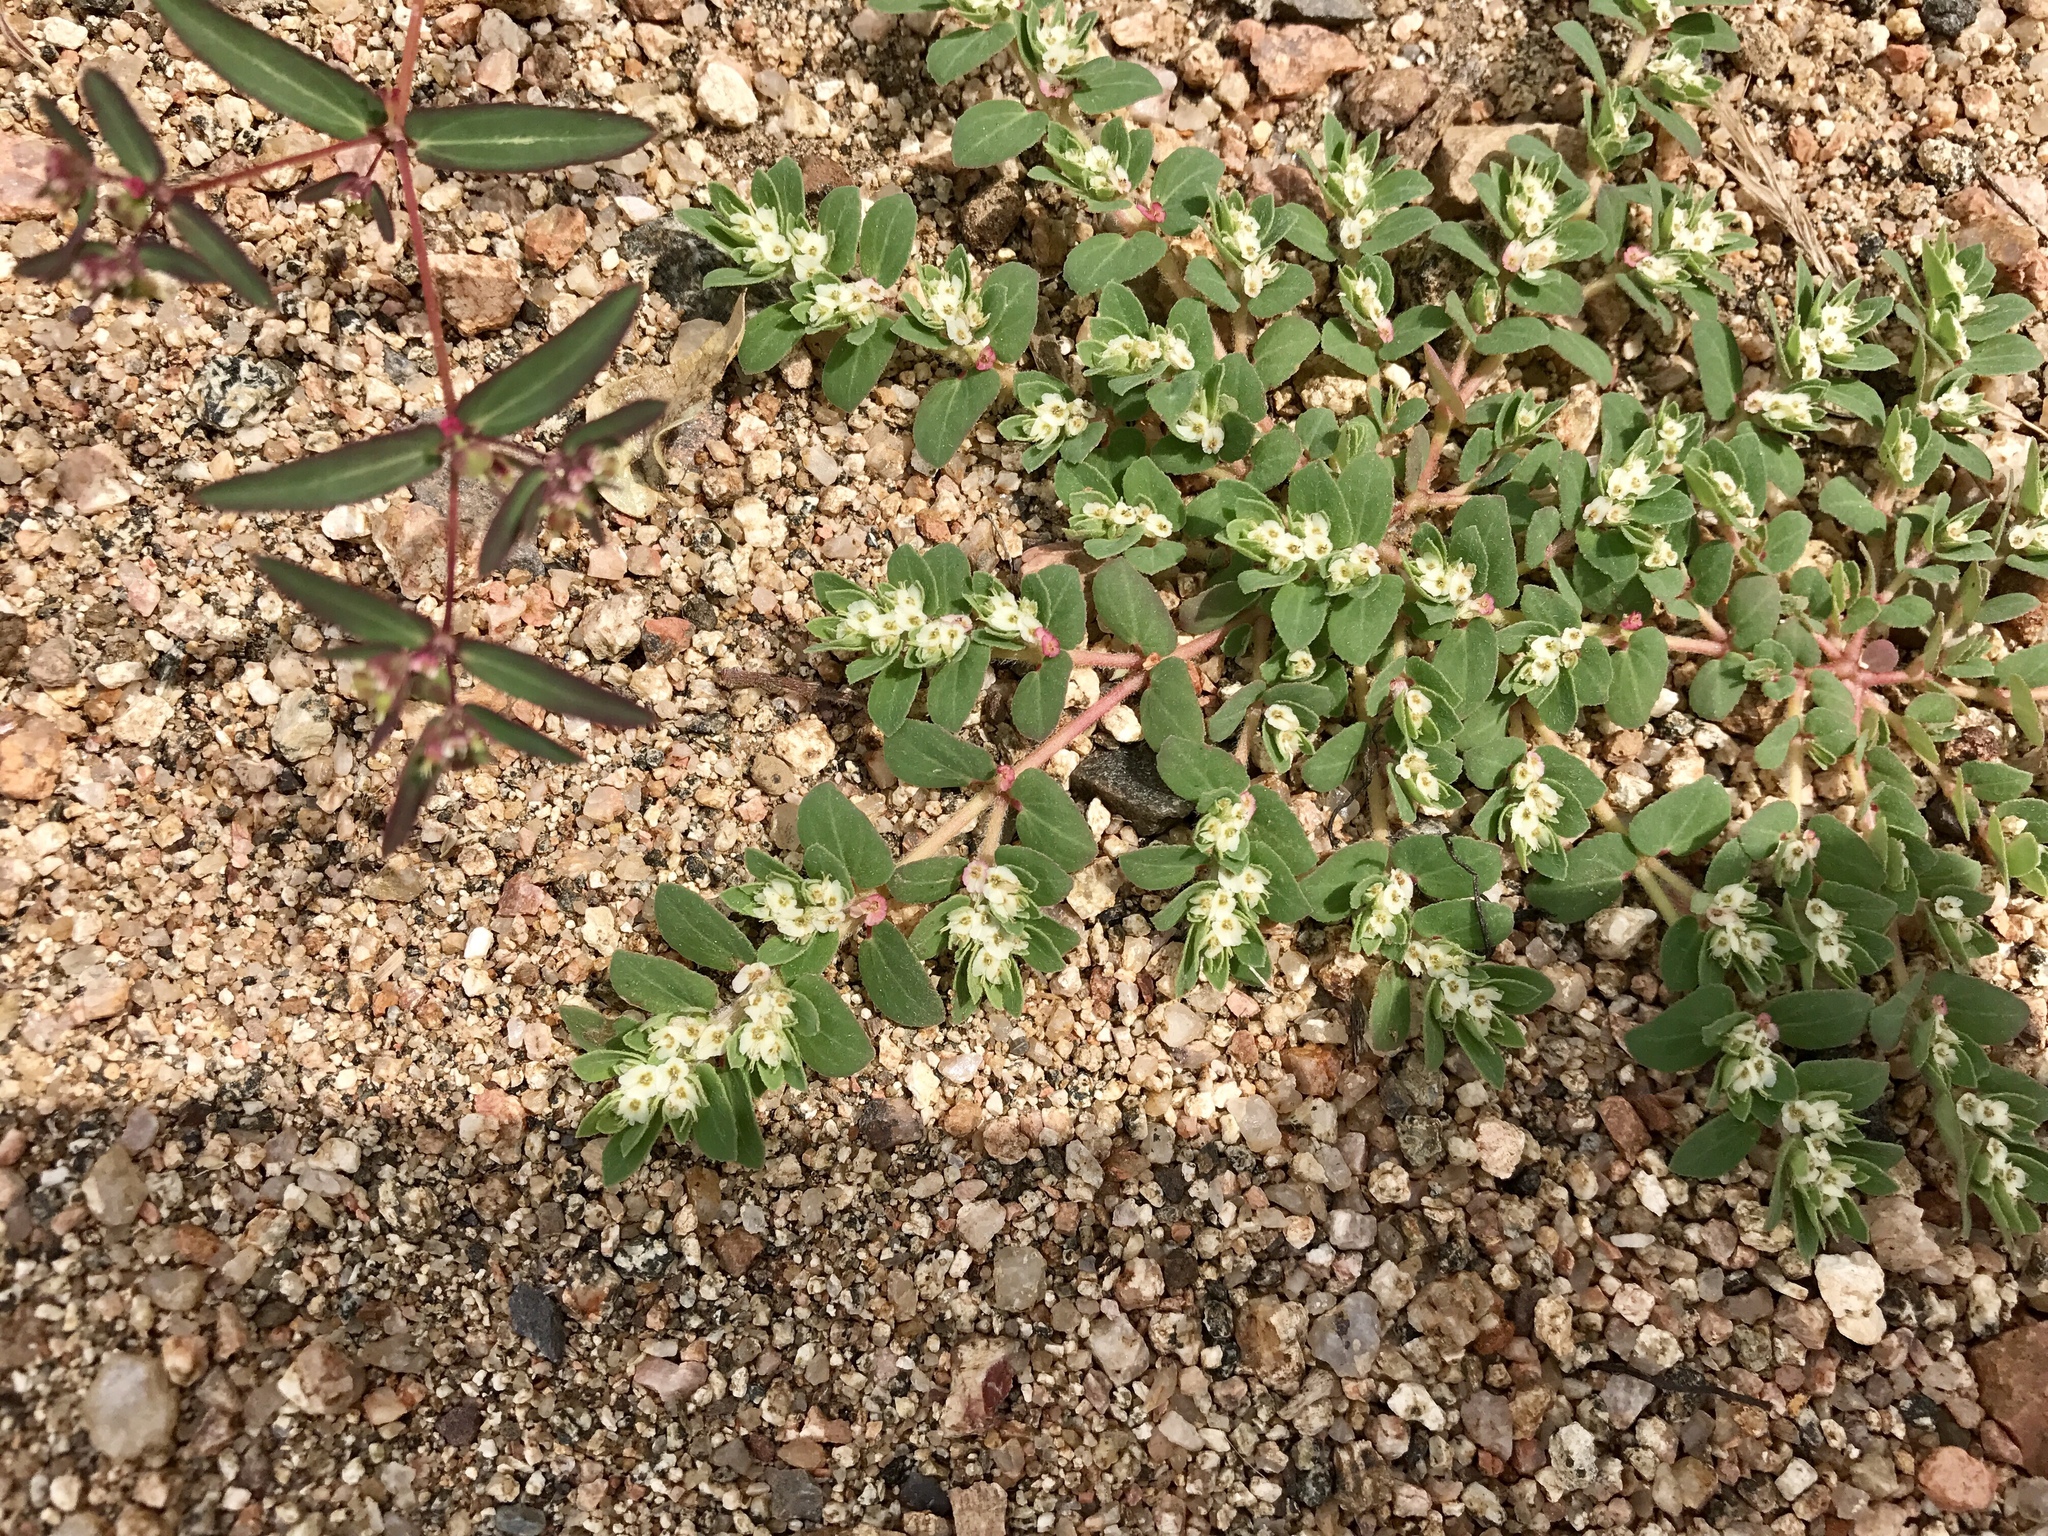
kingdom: Plantae
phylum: Tracheophyta
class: Magnoliopsida
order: Malpighiales
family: Euphorbiaceae
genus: Euphorbia
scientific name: Euphorbia indivisa
